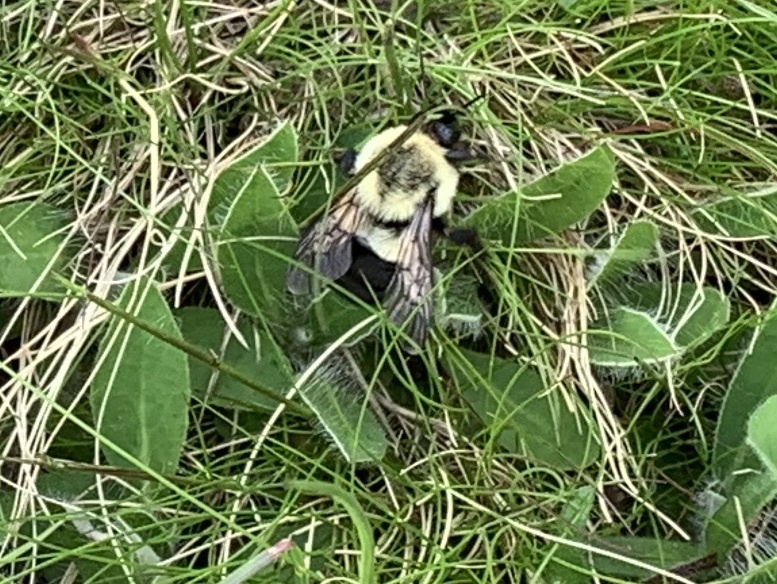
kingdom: Animalia
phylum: Arthropoda
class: Insecta
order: Hymenoptera
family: Apidae
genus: Bombus
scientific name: Bombus impatiens
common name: Common eastern bumble bee
